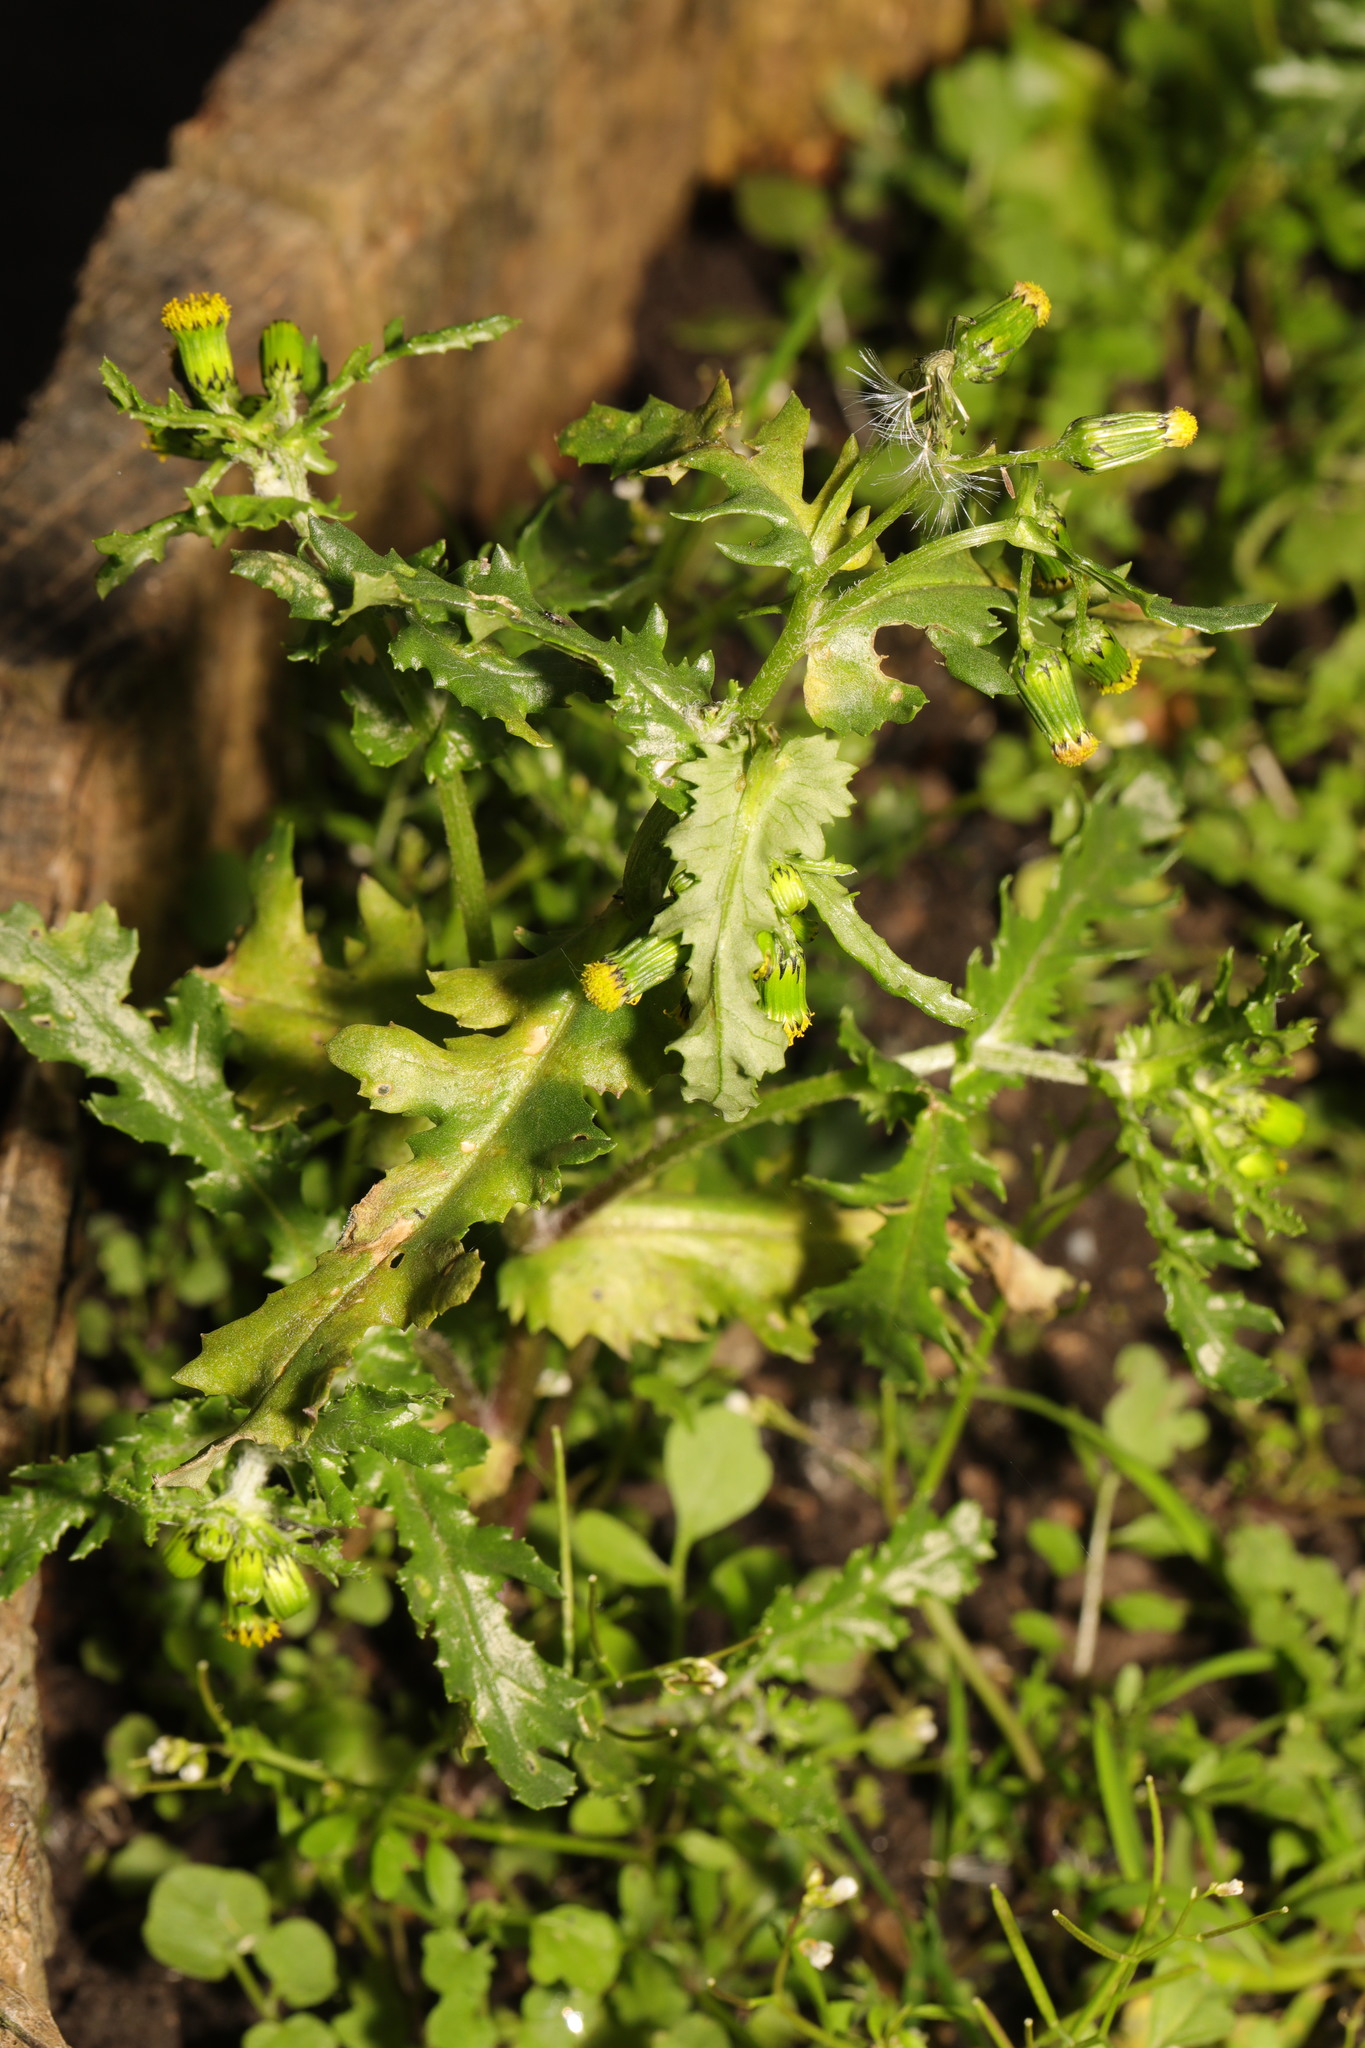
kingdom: Plantae
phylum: Tracheophyta
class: Magnoliopsida
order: Asterales
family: Asteraceae
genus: Senecio
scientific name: Senecio vulgaris
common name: Old-man-in-the-spring
